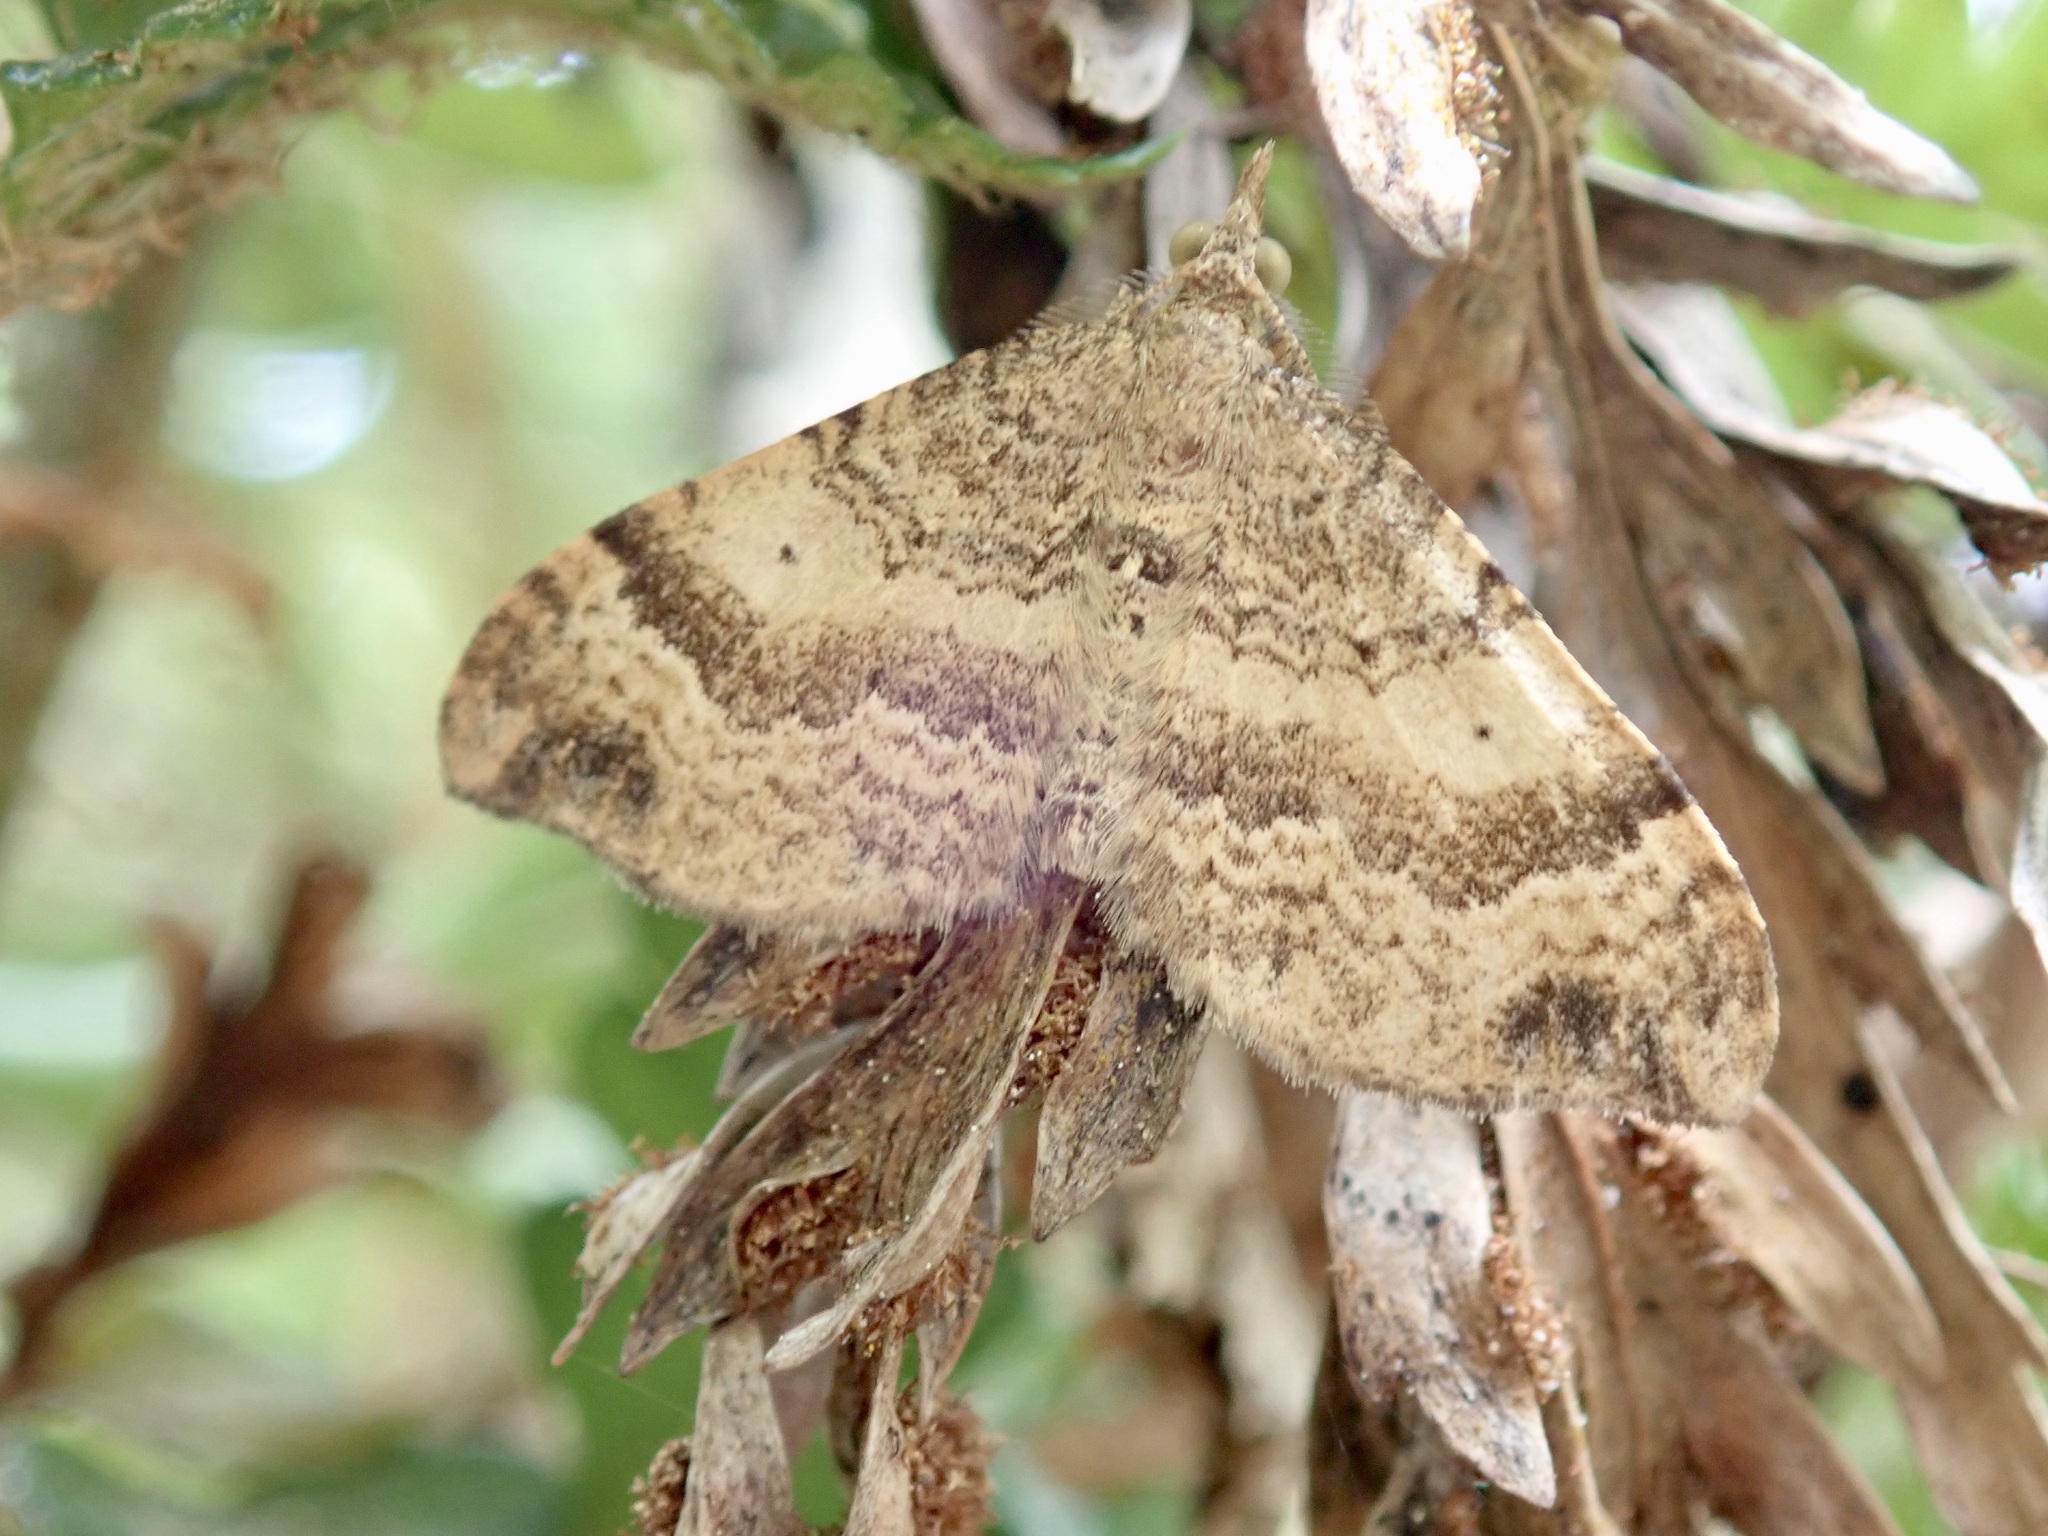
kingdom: Animalia
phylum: Arthropoda
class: Insecta
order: Lepidoptera
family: Geometridae
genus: Homodotis
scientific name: Homodotis megaspilata
